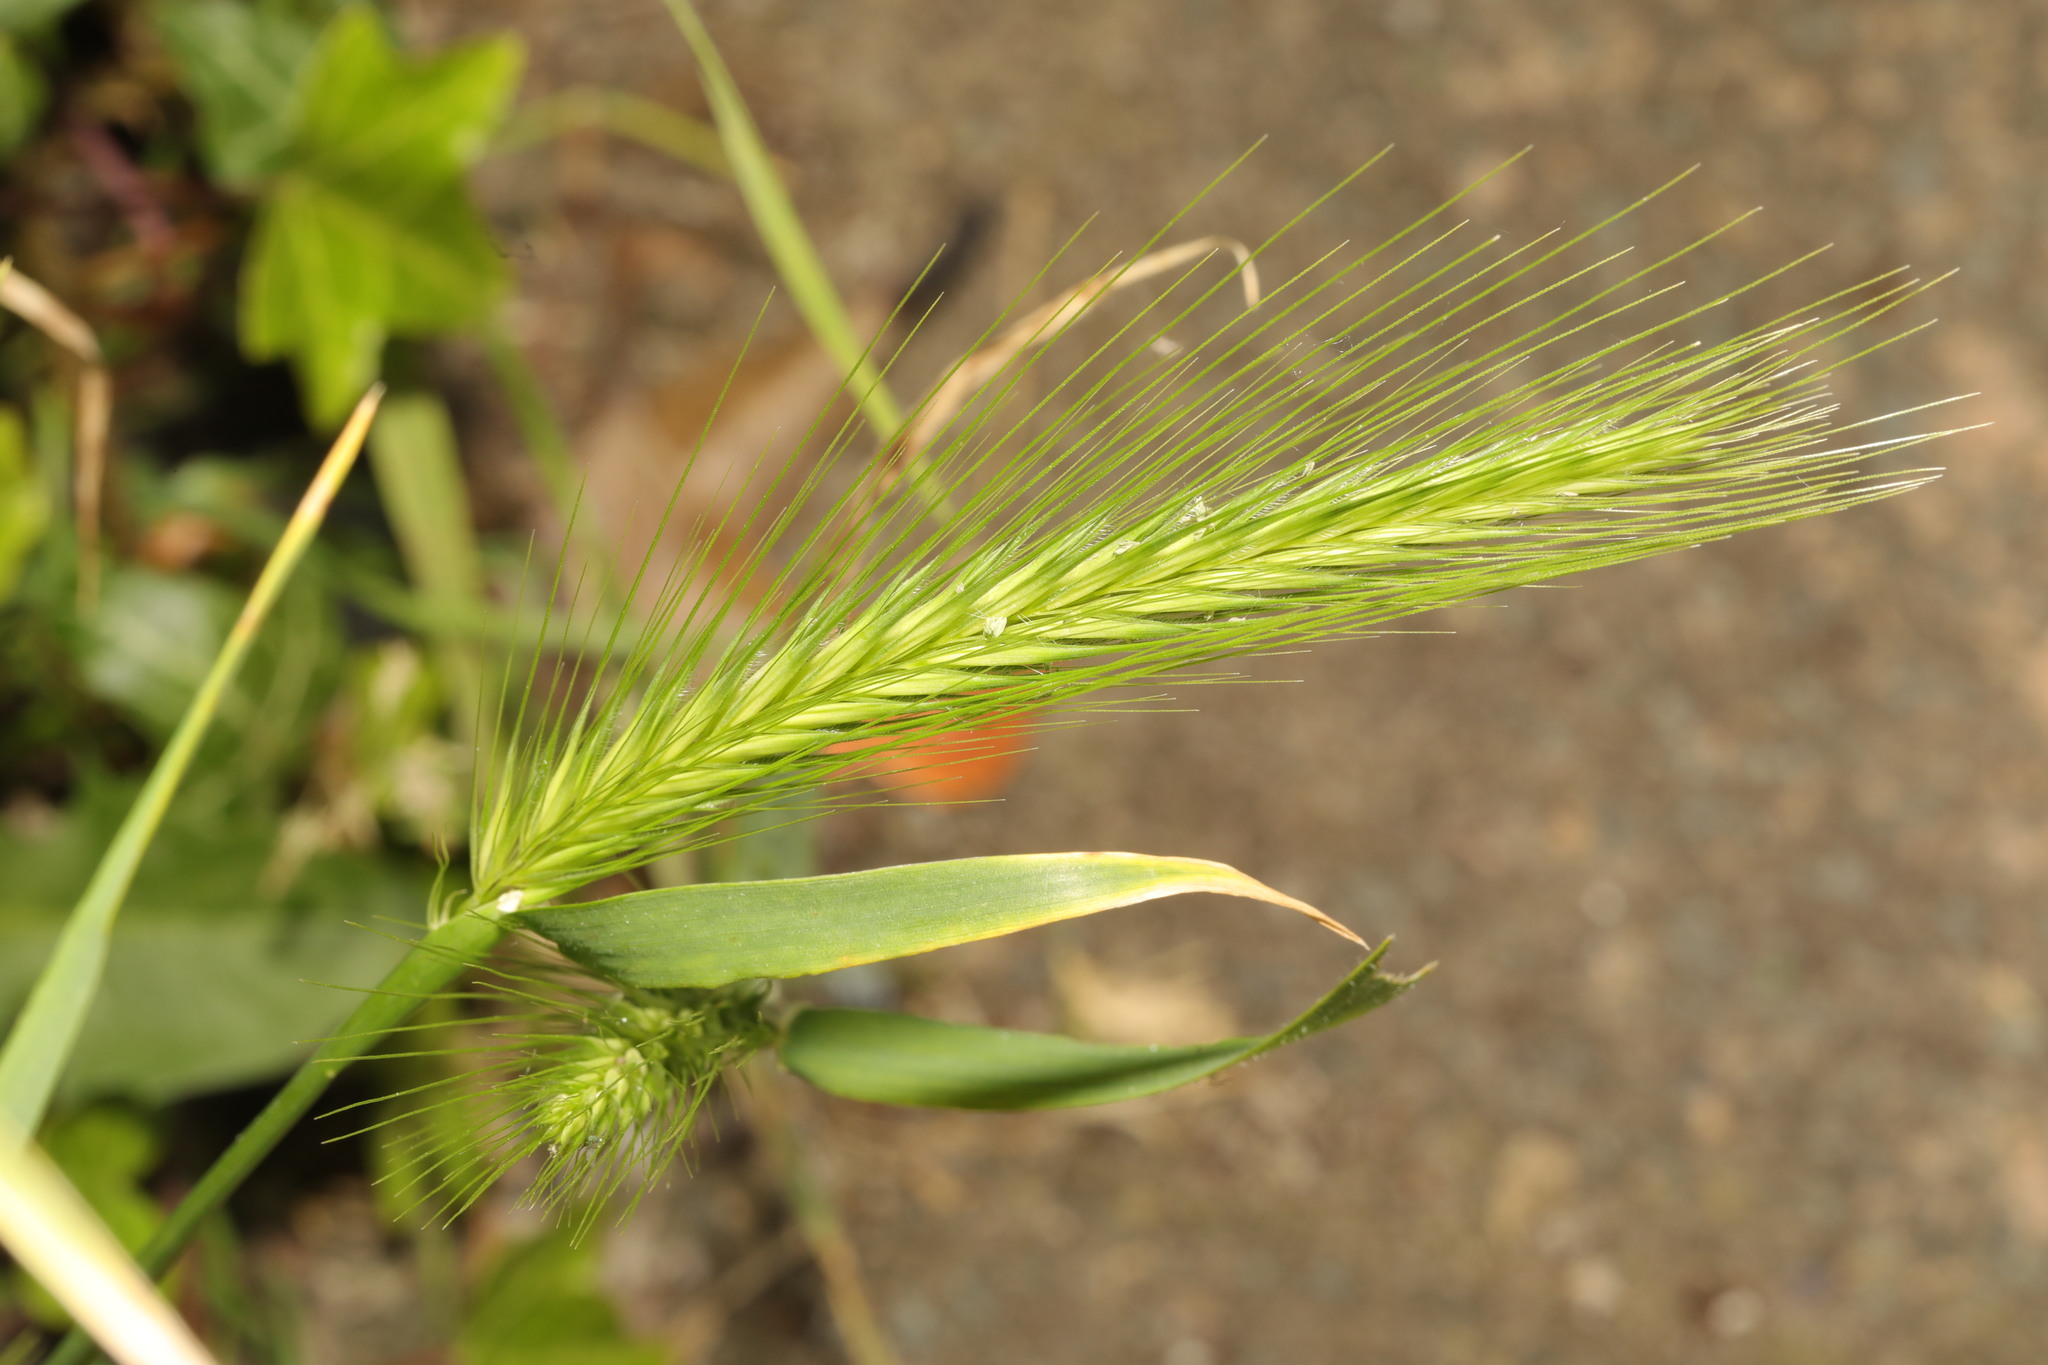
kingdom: Plantae
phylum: Tracheophyta
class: Liliopsida
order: Poales
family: Poaceae
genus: Hordeum
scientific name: Hordeum murinum
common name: Wall barley
